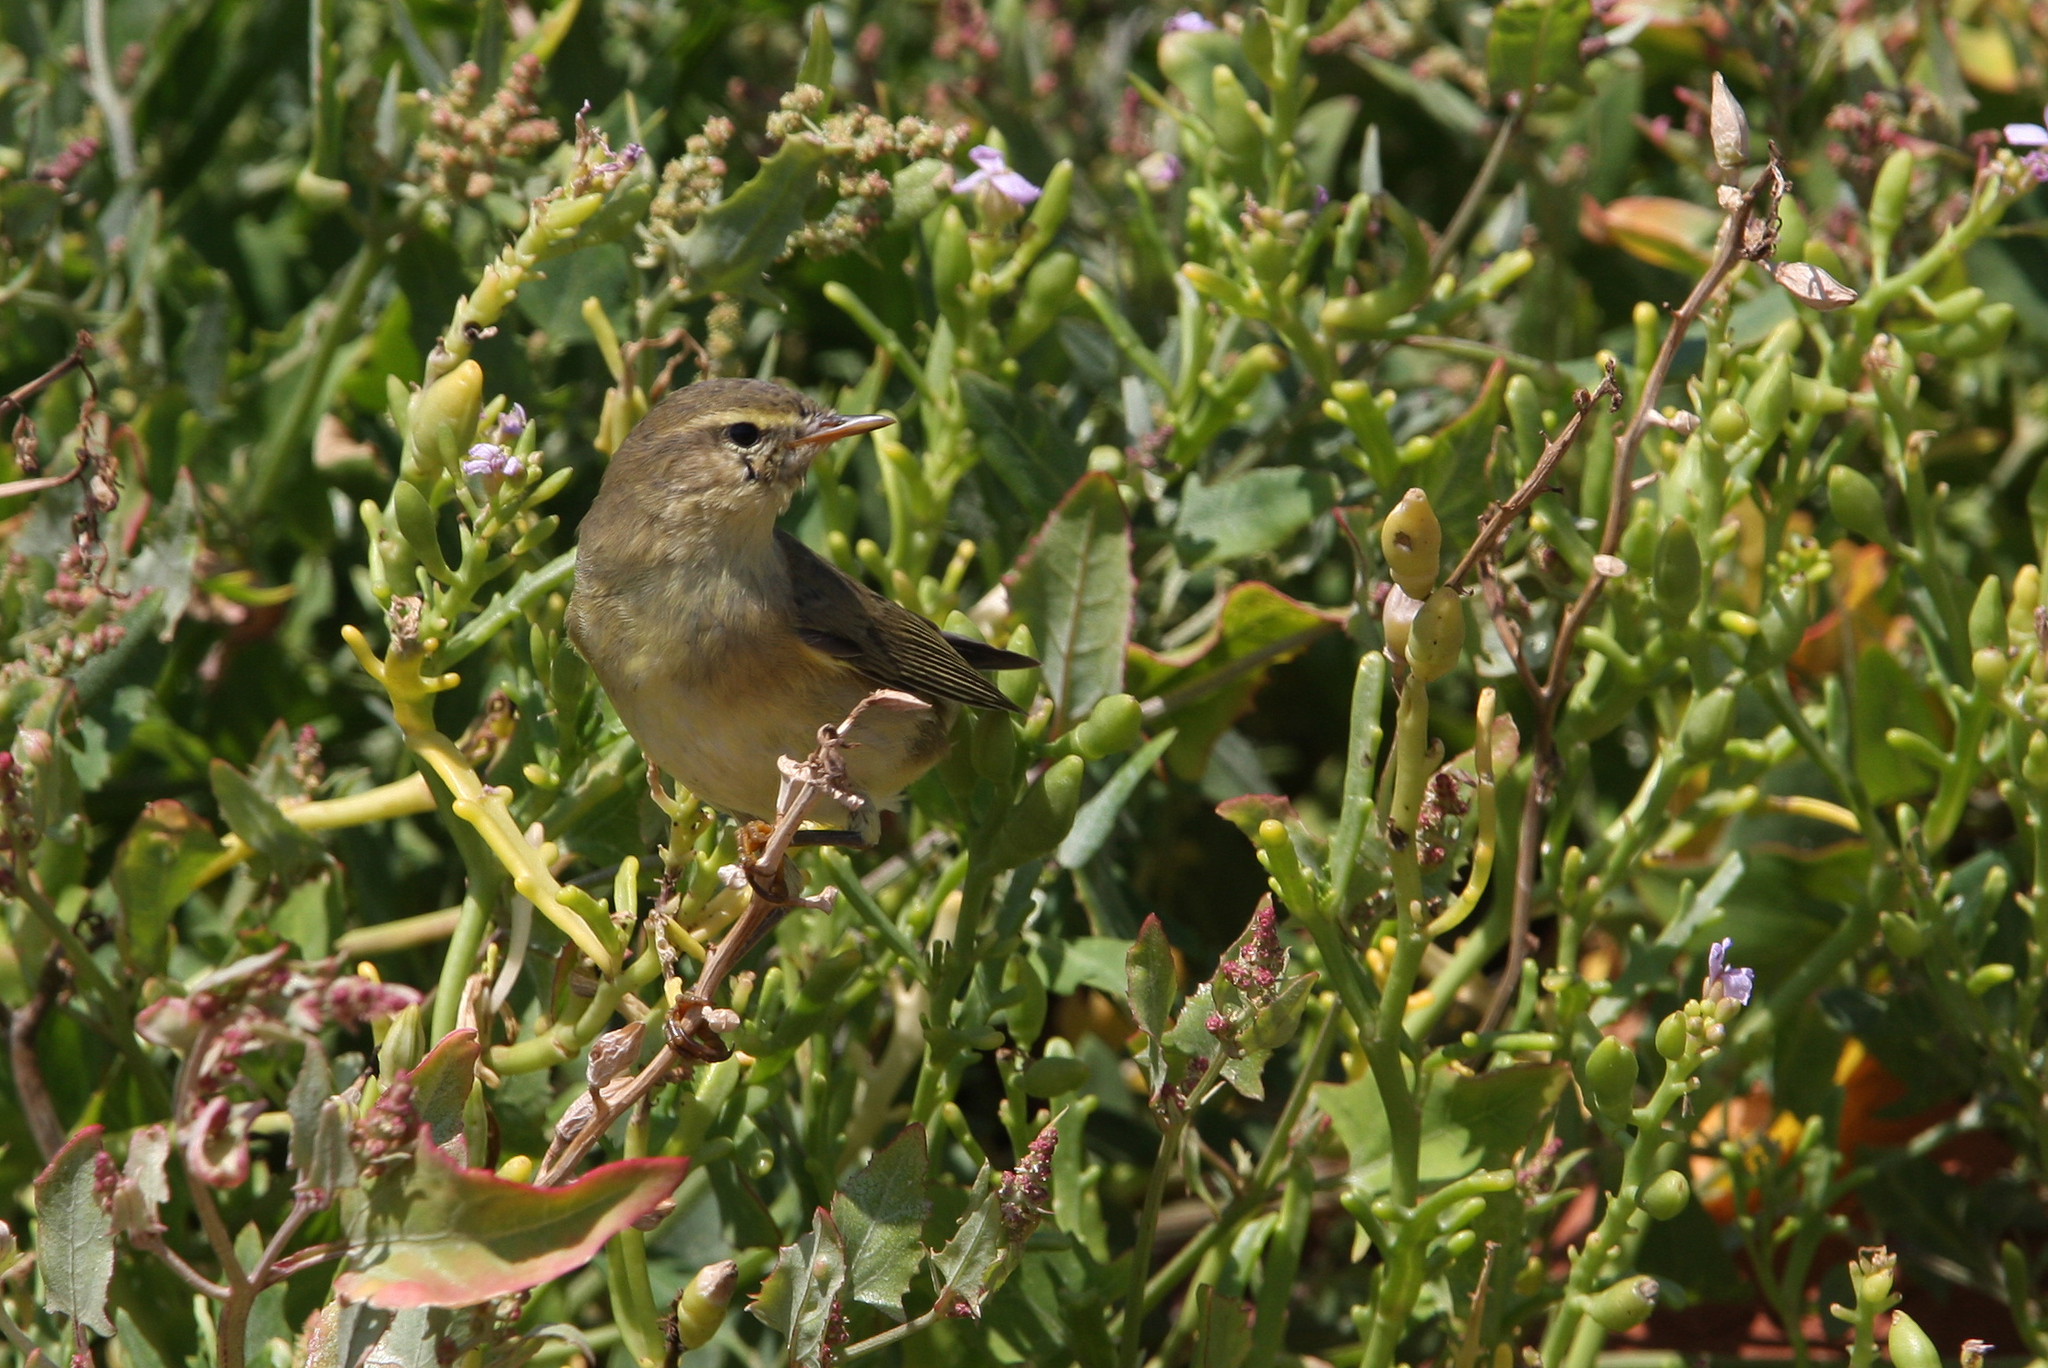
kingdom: Animalia
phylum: Chordata
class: Aves
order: Passeriformes
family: Phylloscopidae
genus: Phylloscopus
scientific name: Phylloscopus collybita
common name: Common chiffchaff
